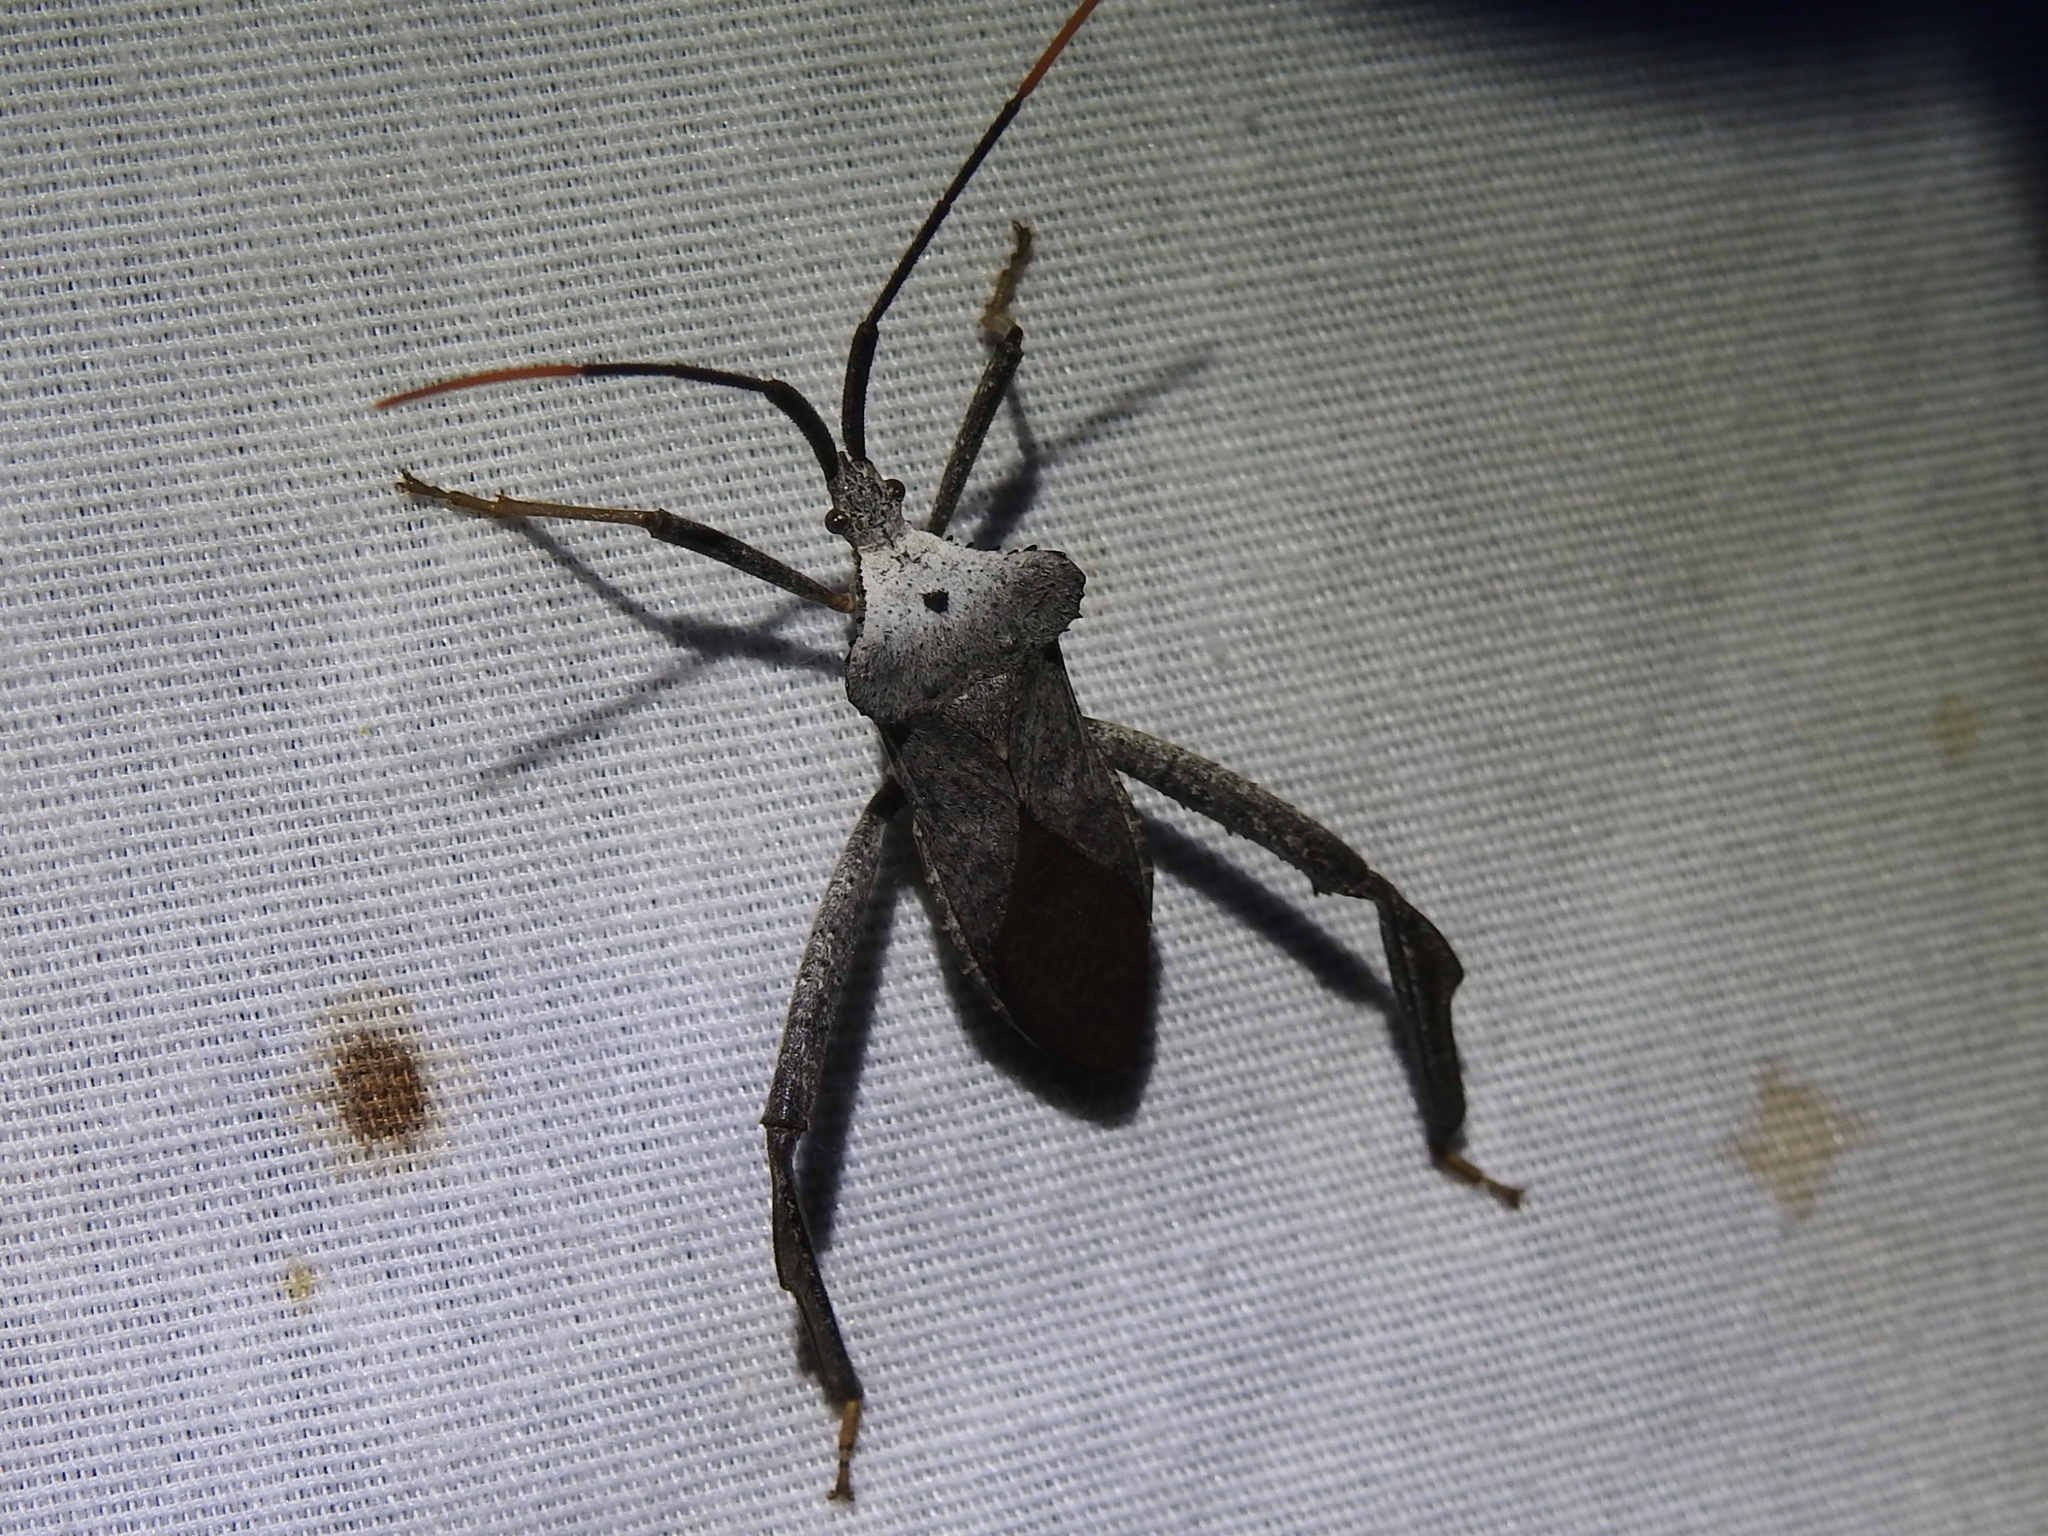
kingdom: Animalia
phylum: Arthropoda
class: Insecta
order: Hemiptera
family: Coreidae
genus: Acanthocephala
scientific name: Acanthocephala alata
